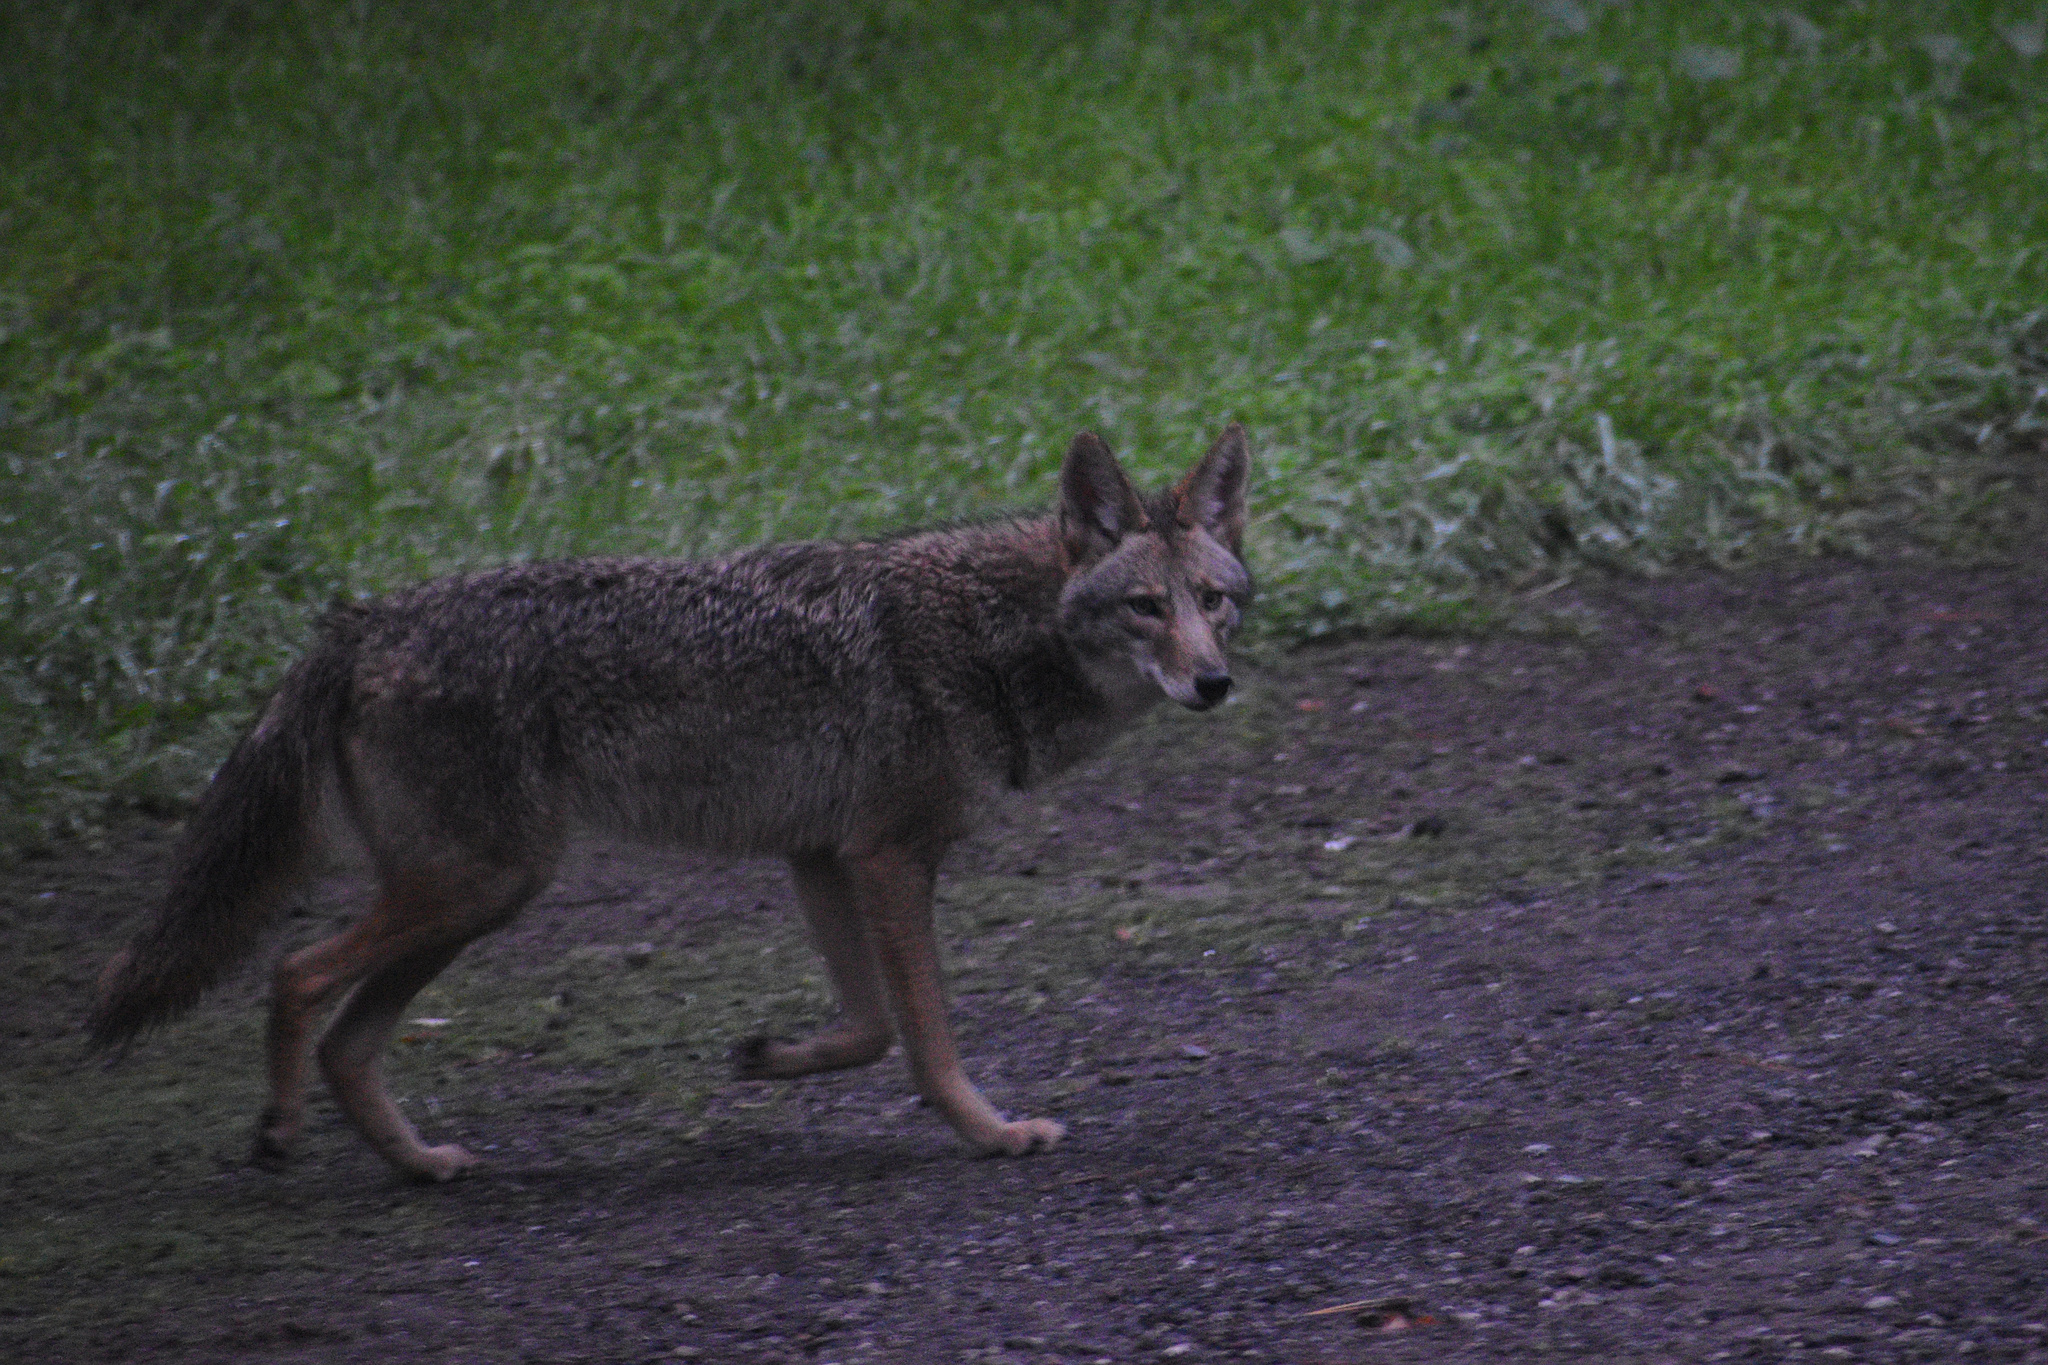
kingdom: Animalia
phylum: Chordata
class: Mammalia
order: Carnivora
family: Canidae
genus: Canis
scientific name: Canis latrans
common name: Coyote
